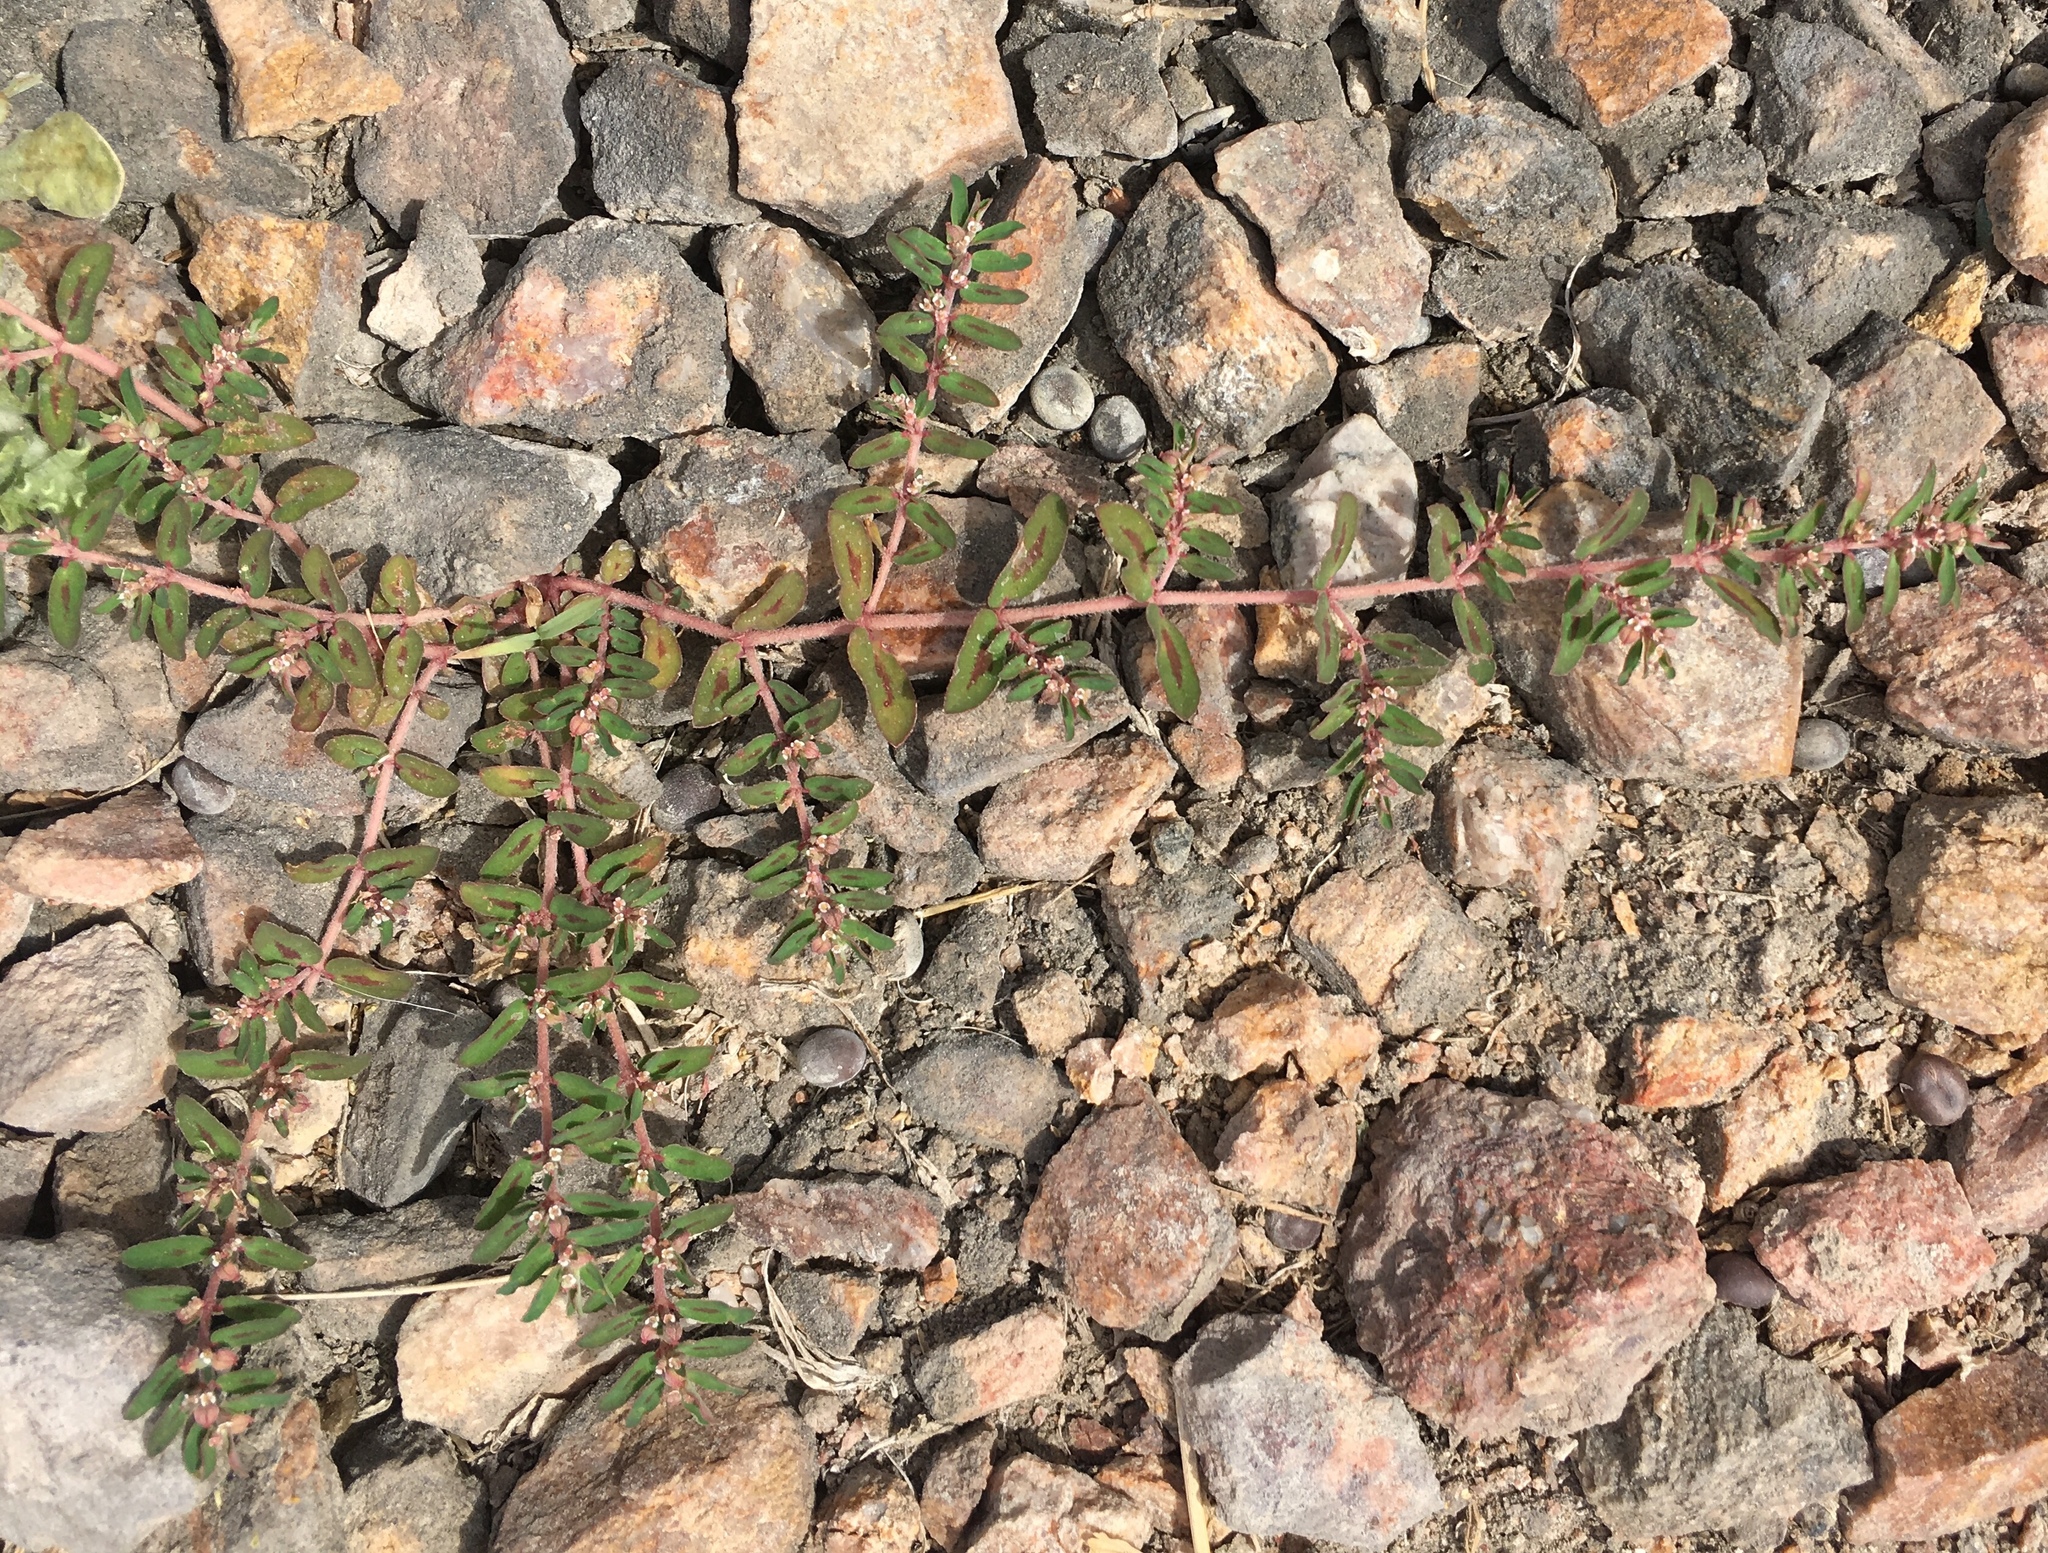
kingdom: Plantae
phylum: Tracheophyta
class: Magnoliopsida
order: Malpighiales
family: Euphorbiaceae
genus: Euphorbia
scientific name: Euphorbia maculata
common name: Spotted spurge
